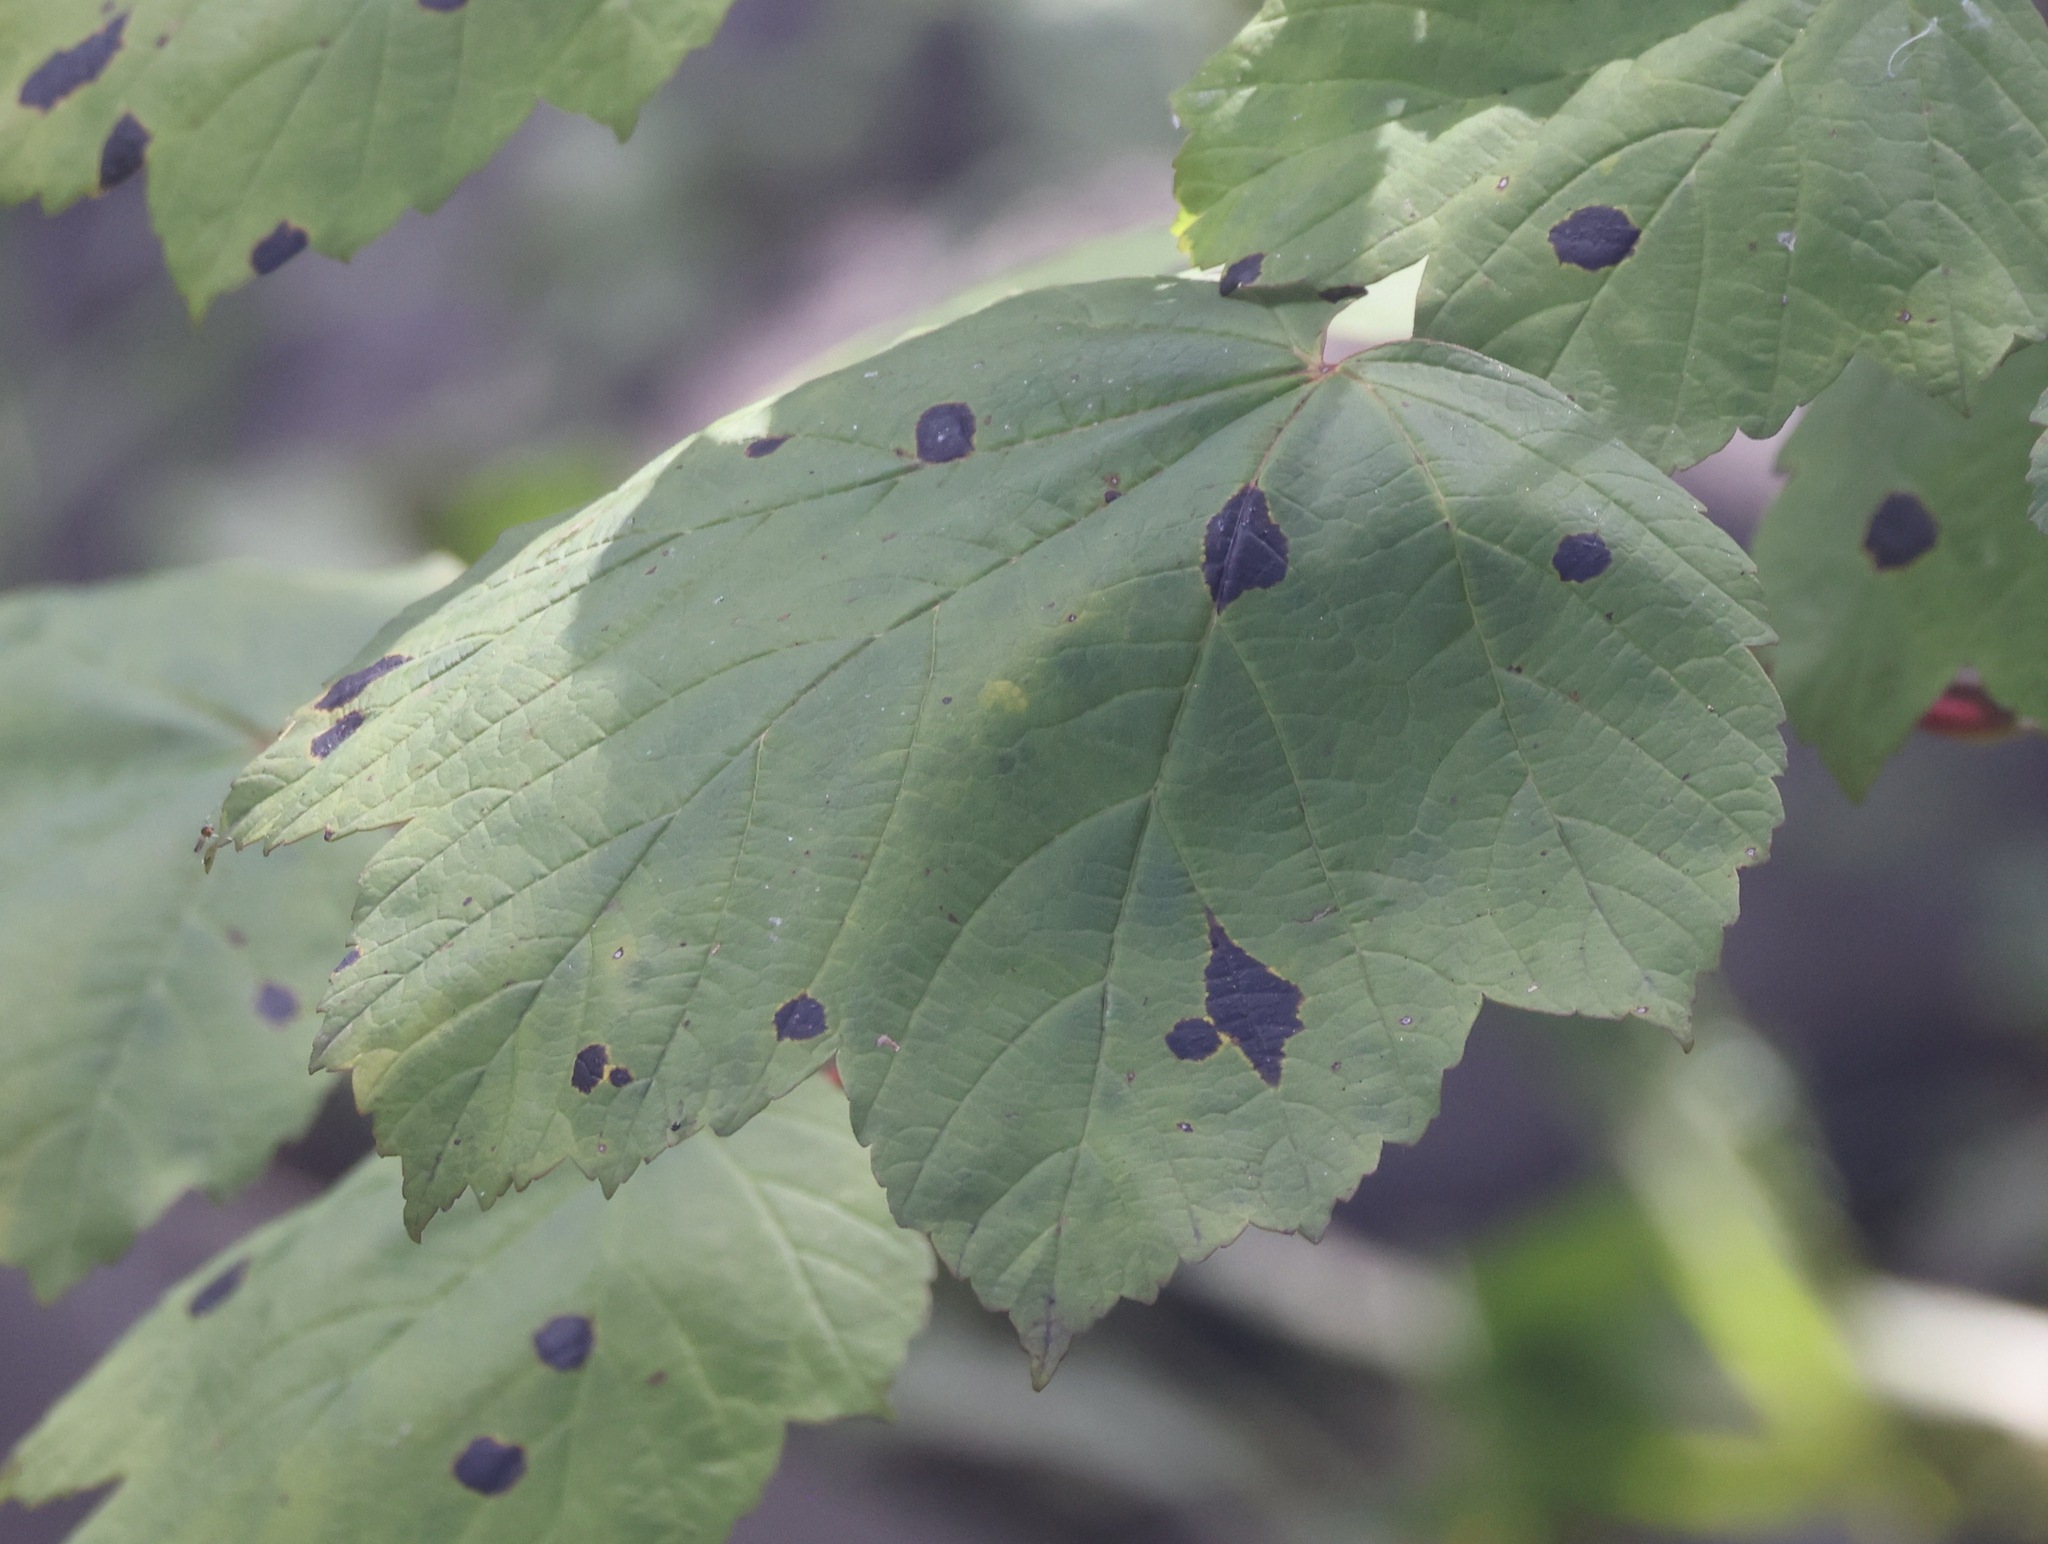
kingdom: Fungi
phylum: Ascomycota
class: Leotiomycetes
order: Rhytismatales
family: Rhytismataceae
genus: Rhytisma
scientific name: Rhytisma acerinum
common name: European tar spot
